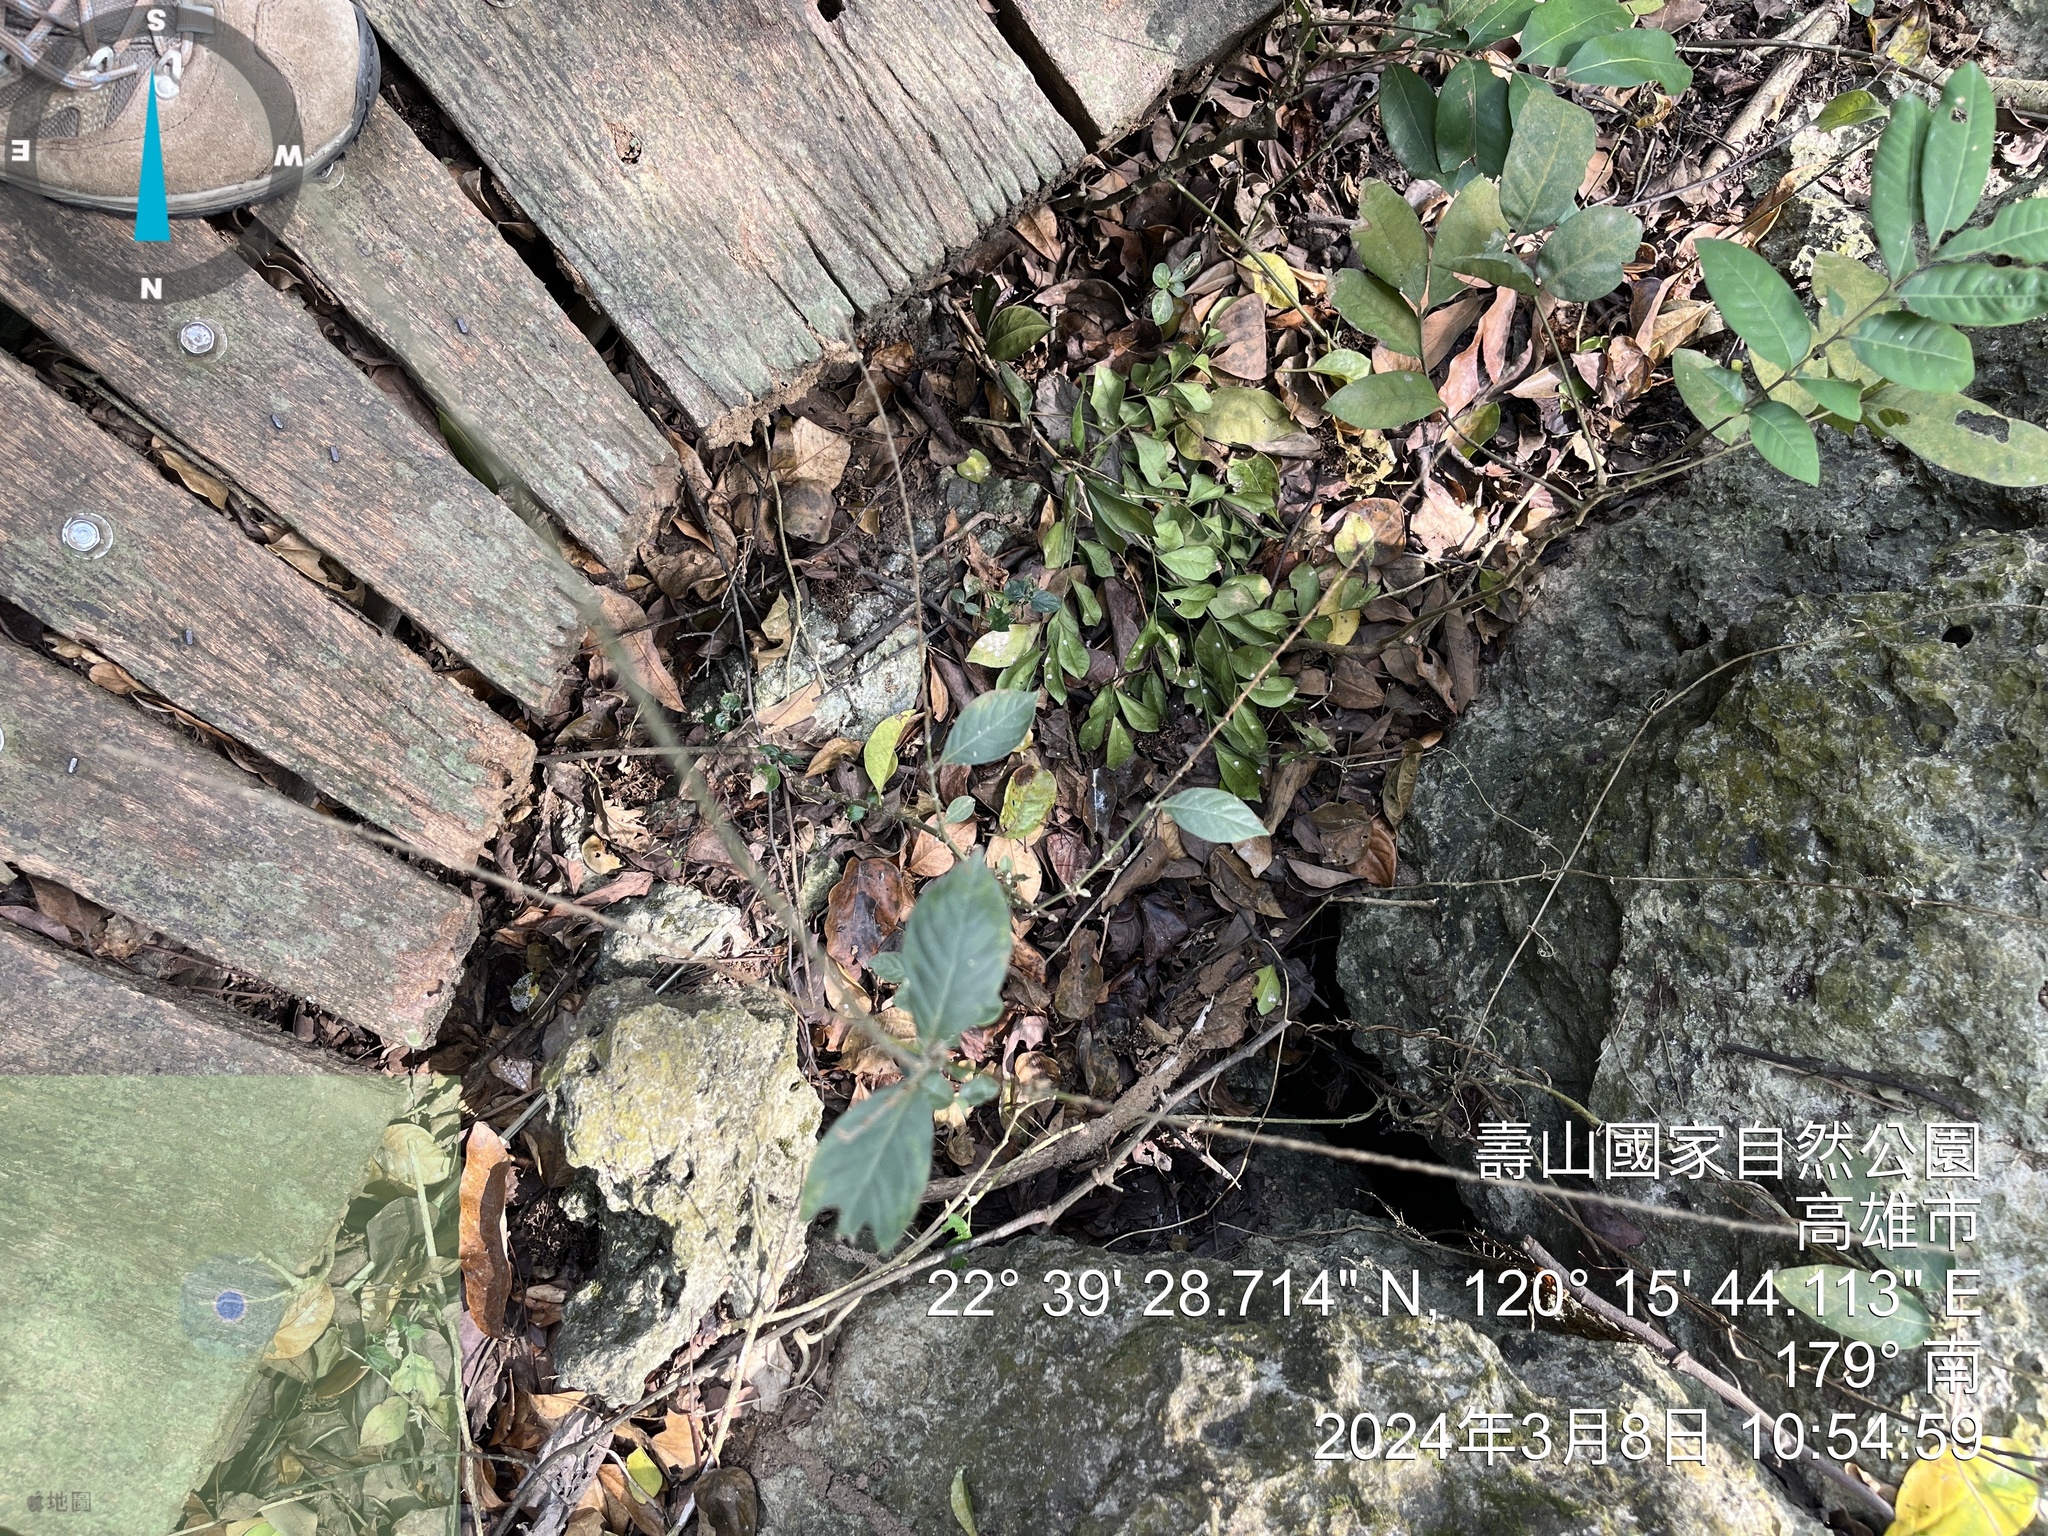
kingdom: Plantae
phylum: Tracheophyta
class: Magnoliopsida
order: Caryophyllales
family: Amaranthaceae
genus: Achyranthes
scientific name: Achyranthes aspera
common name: Devil's horsewhip
